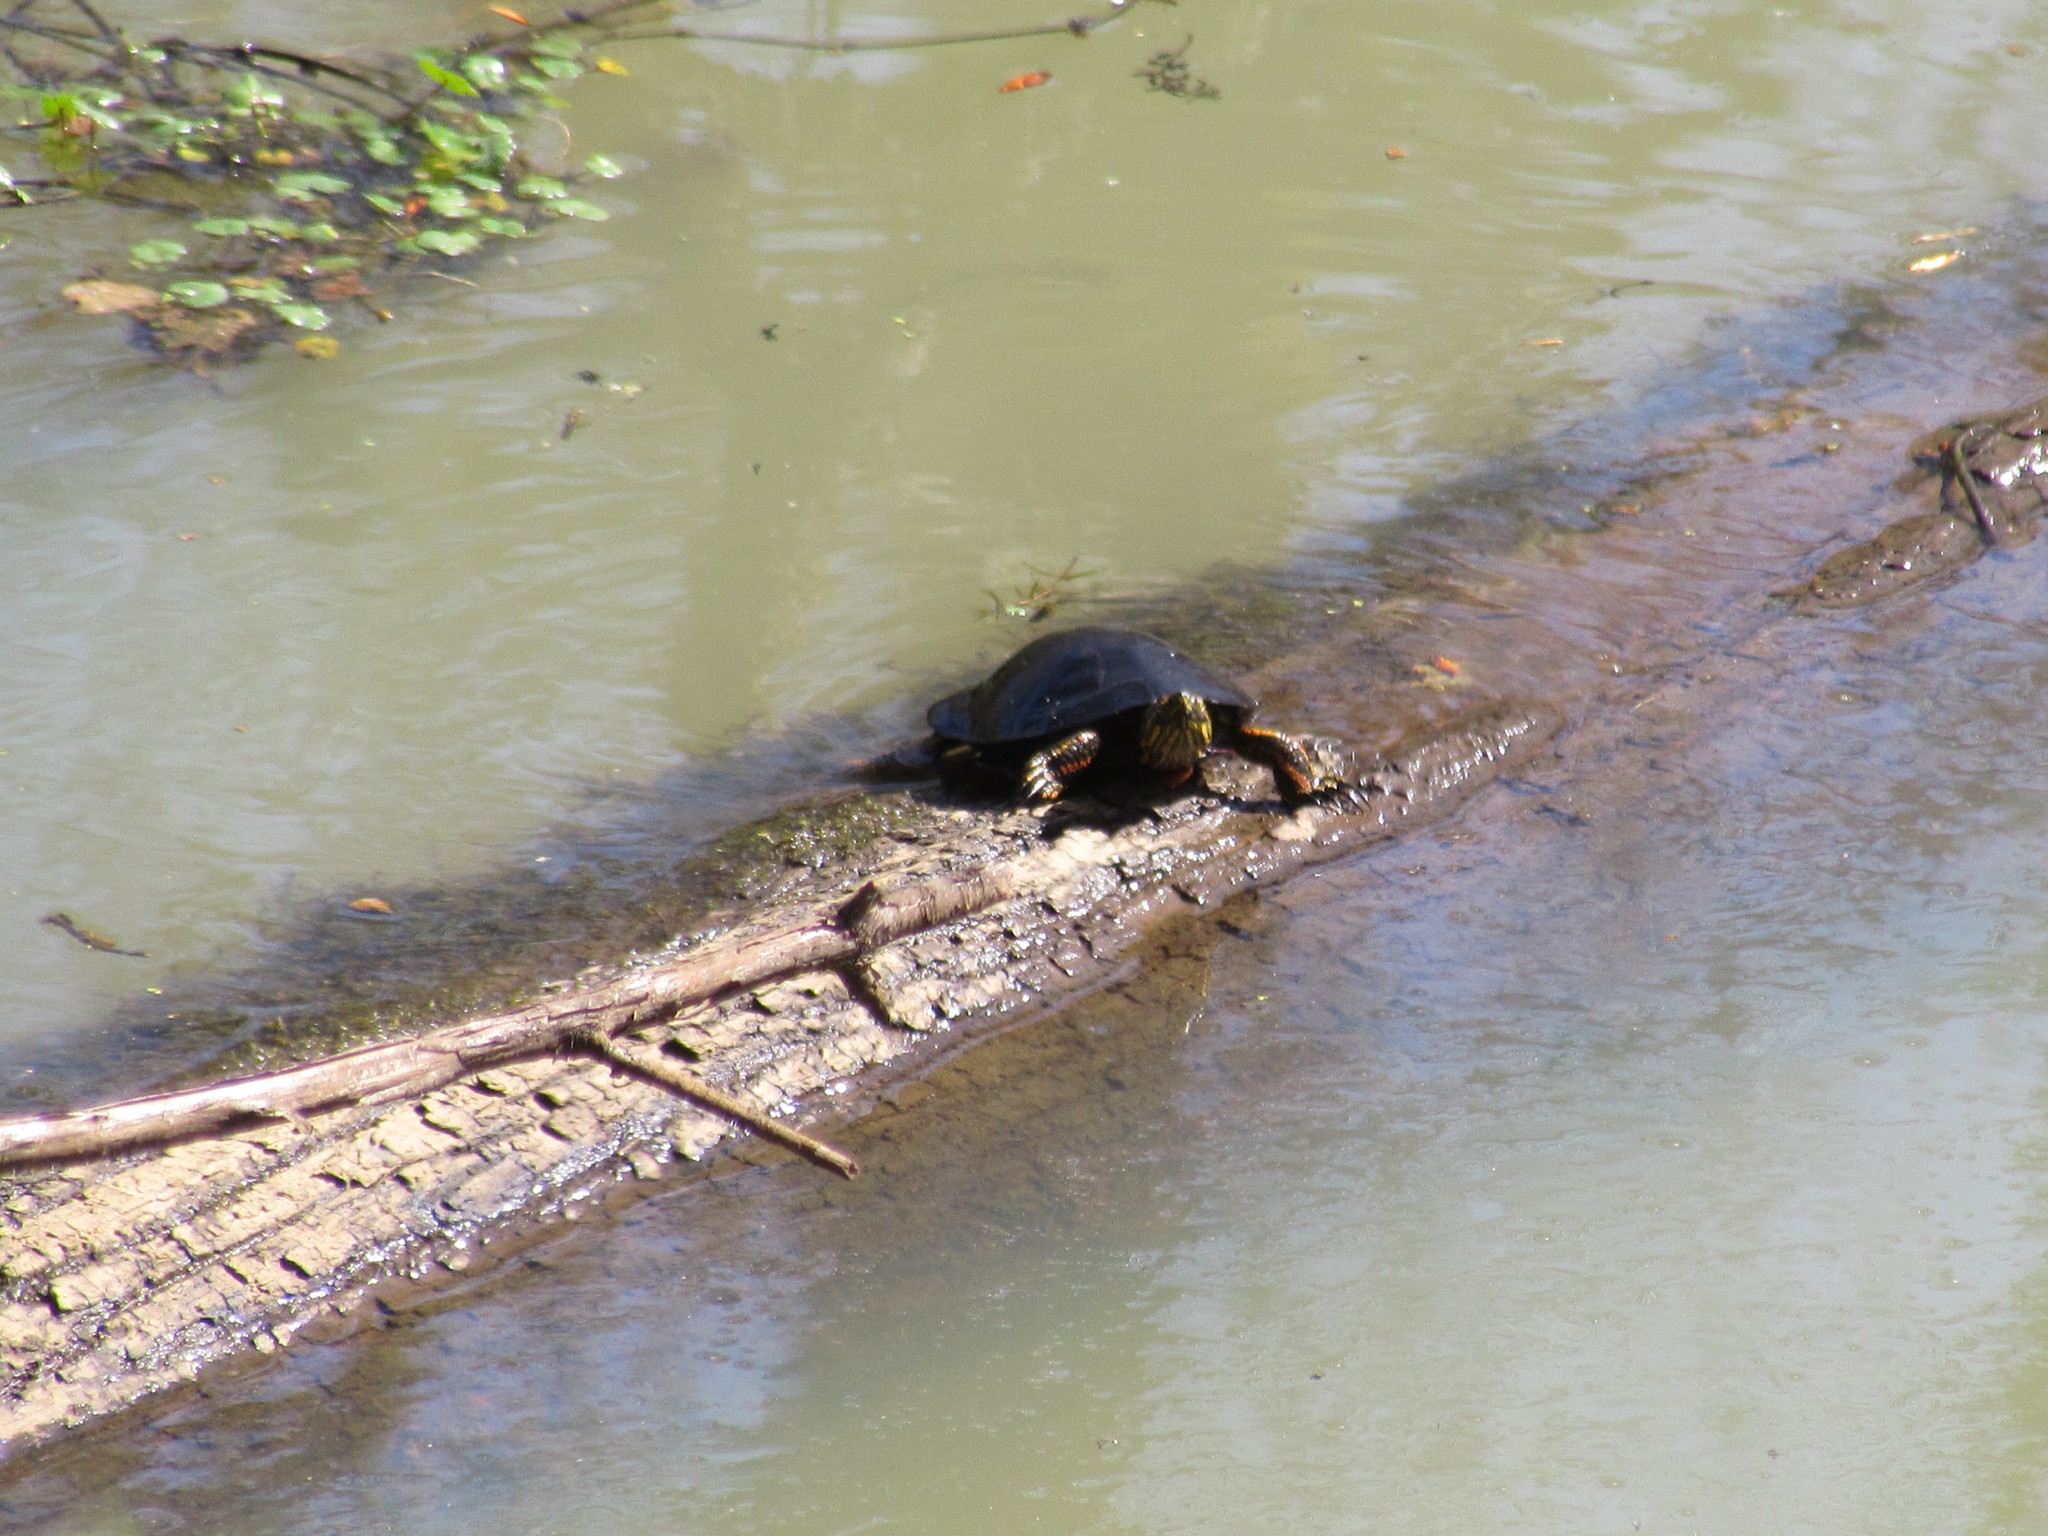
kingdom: Animalia
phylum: Chordata
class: Testudines
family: Emydidae
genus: Chrysemys
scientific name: Chrysemys picta
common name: Painted turtle
